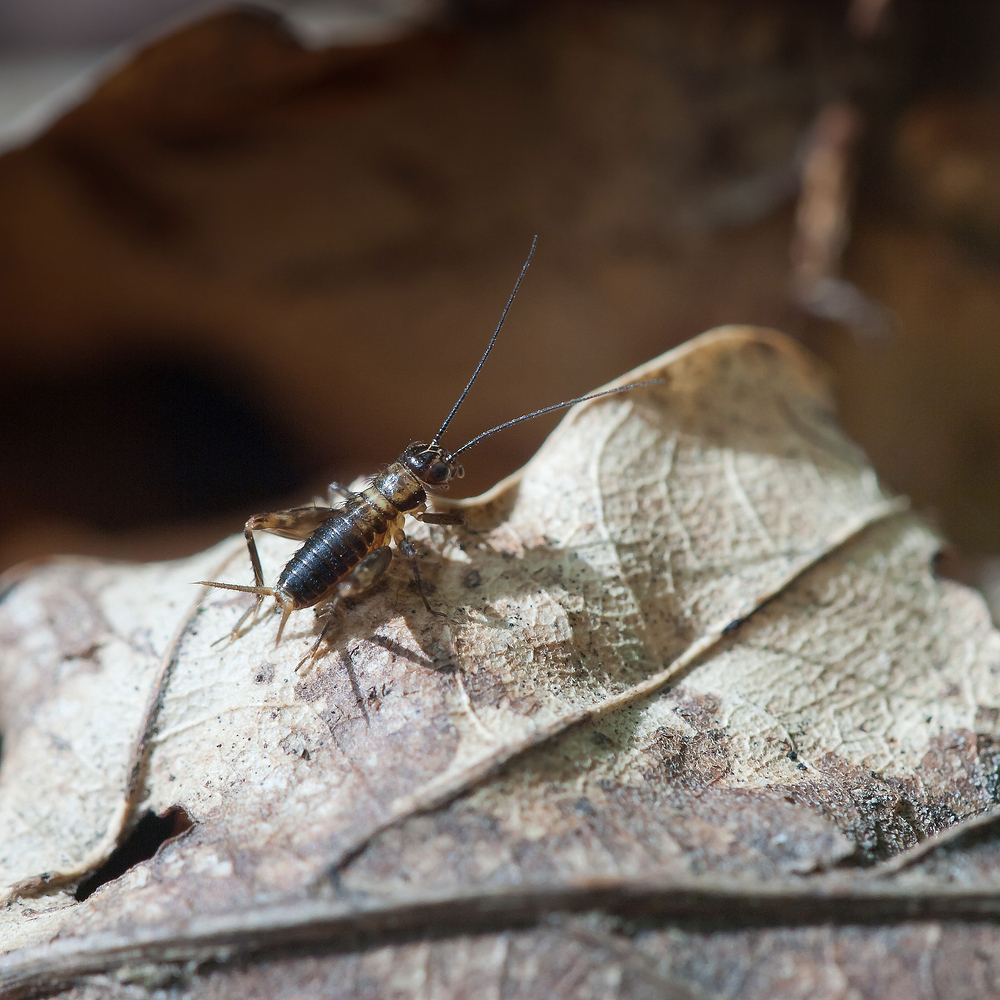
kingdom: Animalia
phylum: Arthropoda
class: Insecta
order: Orthoptera
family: Trigonidiidae
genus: Nemobius
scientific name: Nemobius sylvestris
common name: Wood-cricket
